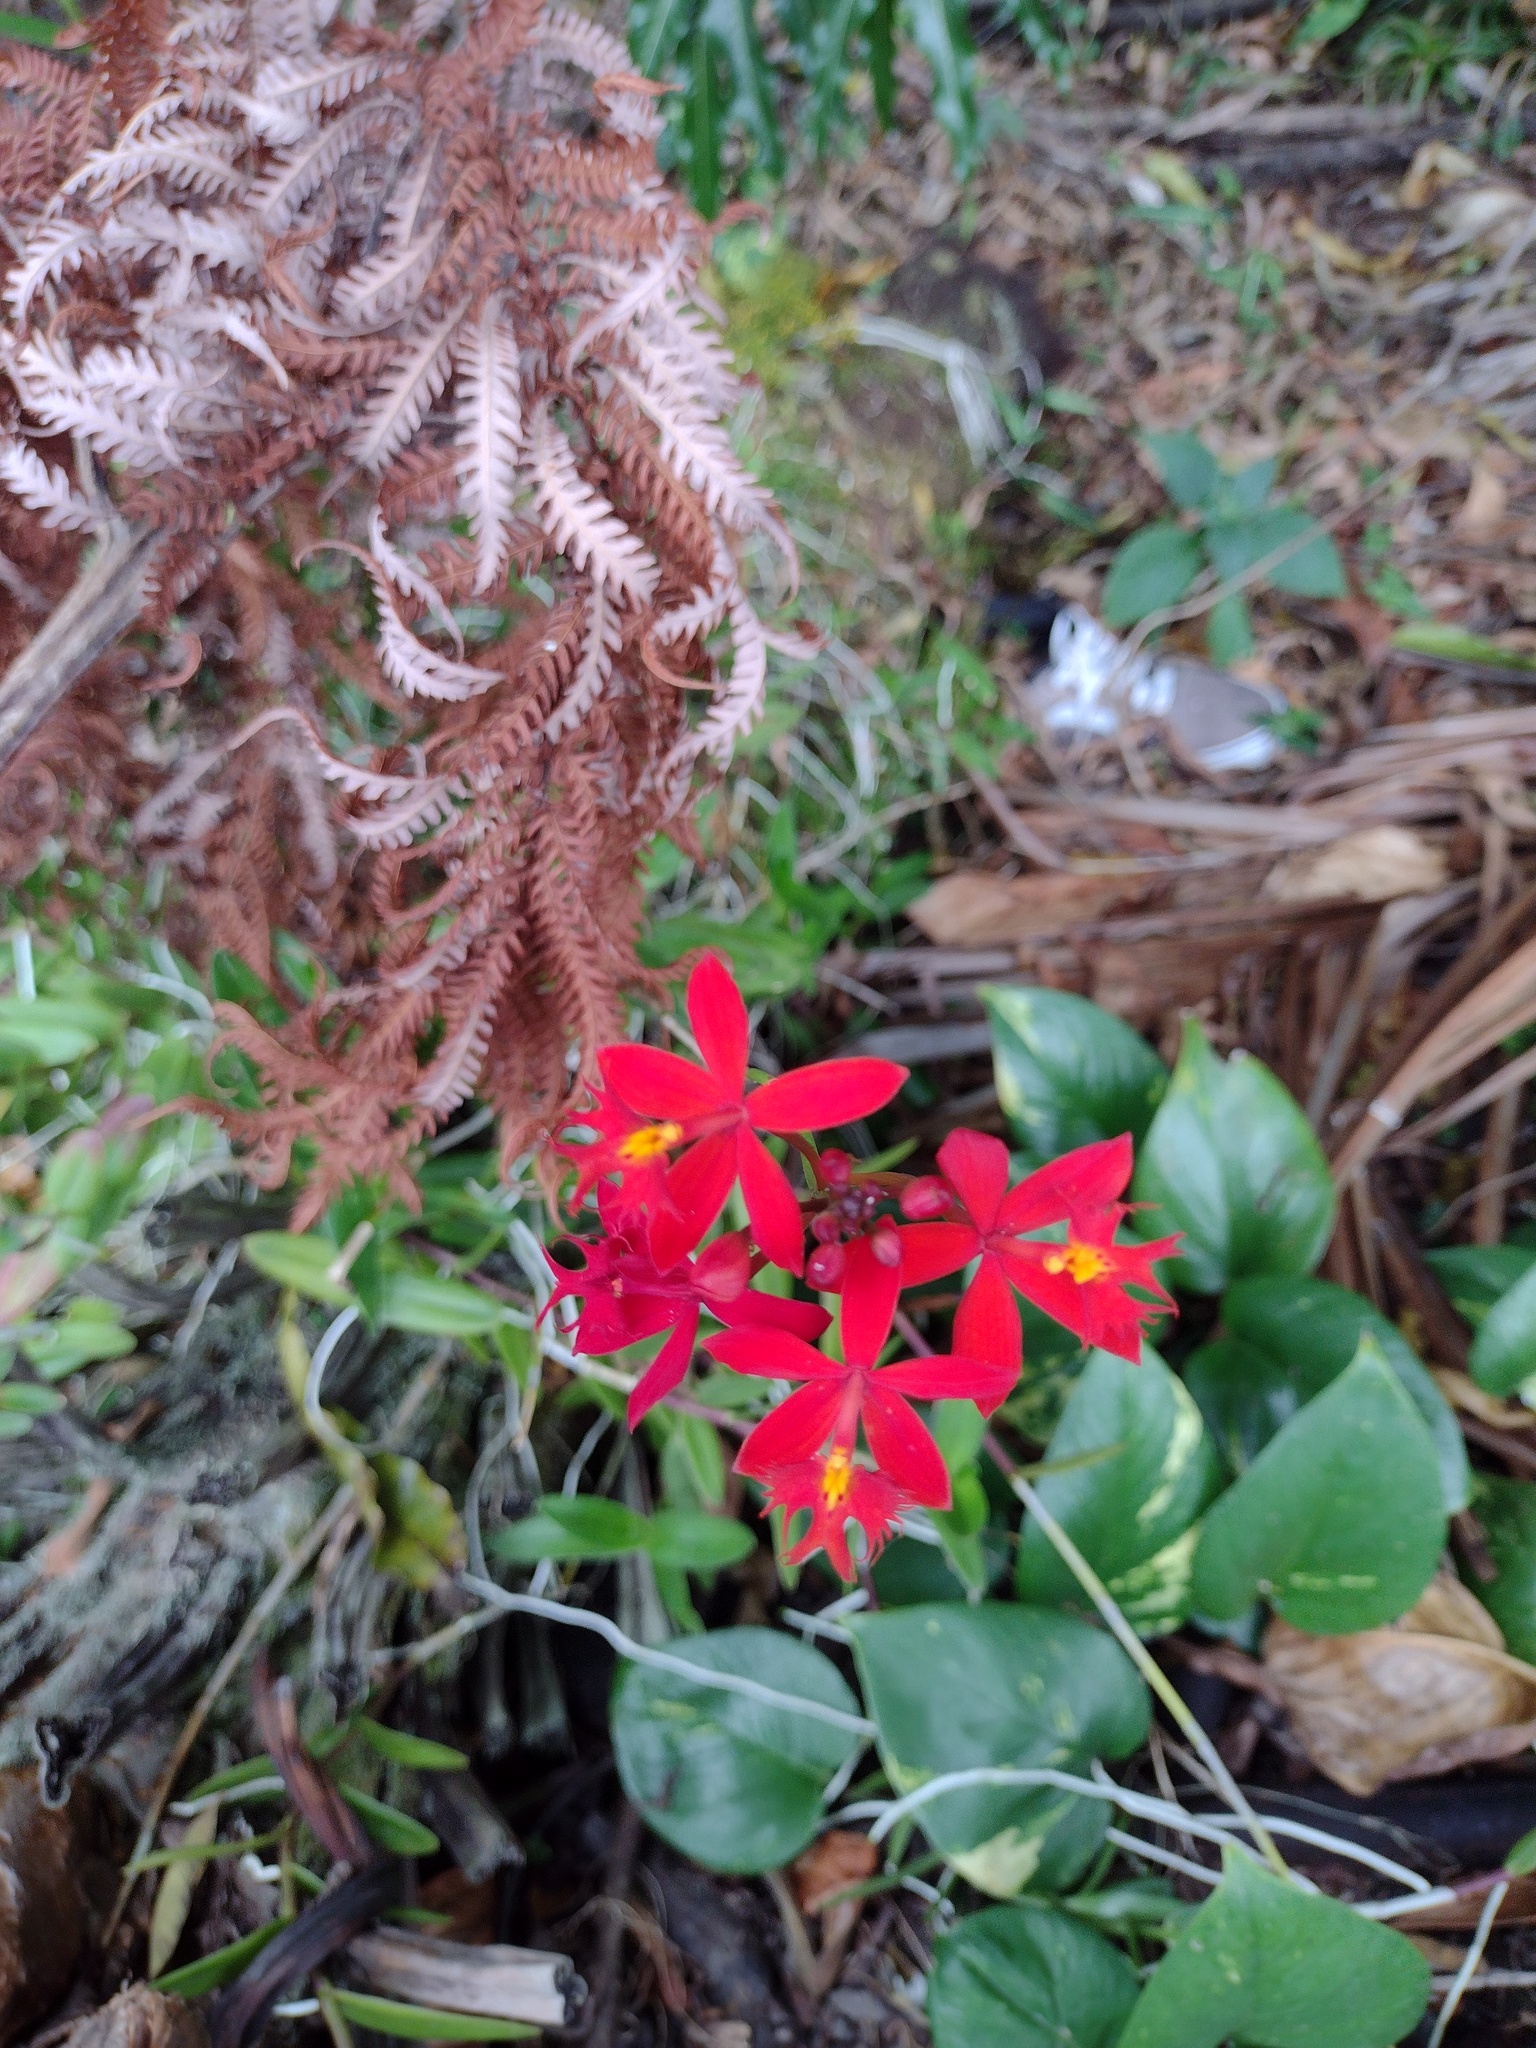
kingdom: Plantae
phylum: Tracheophyta
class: Liliopsida
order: Asparagales
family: Orchidaceae
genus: Epidendrum
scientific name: Epidendrum obrienianum
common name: O'brien's star orchid
